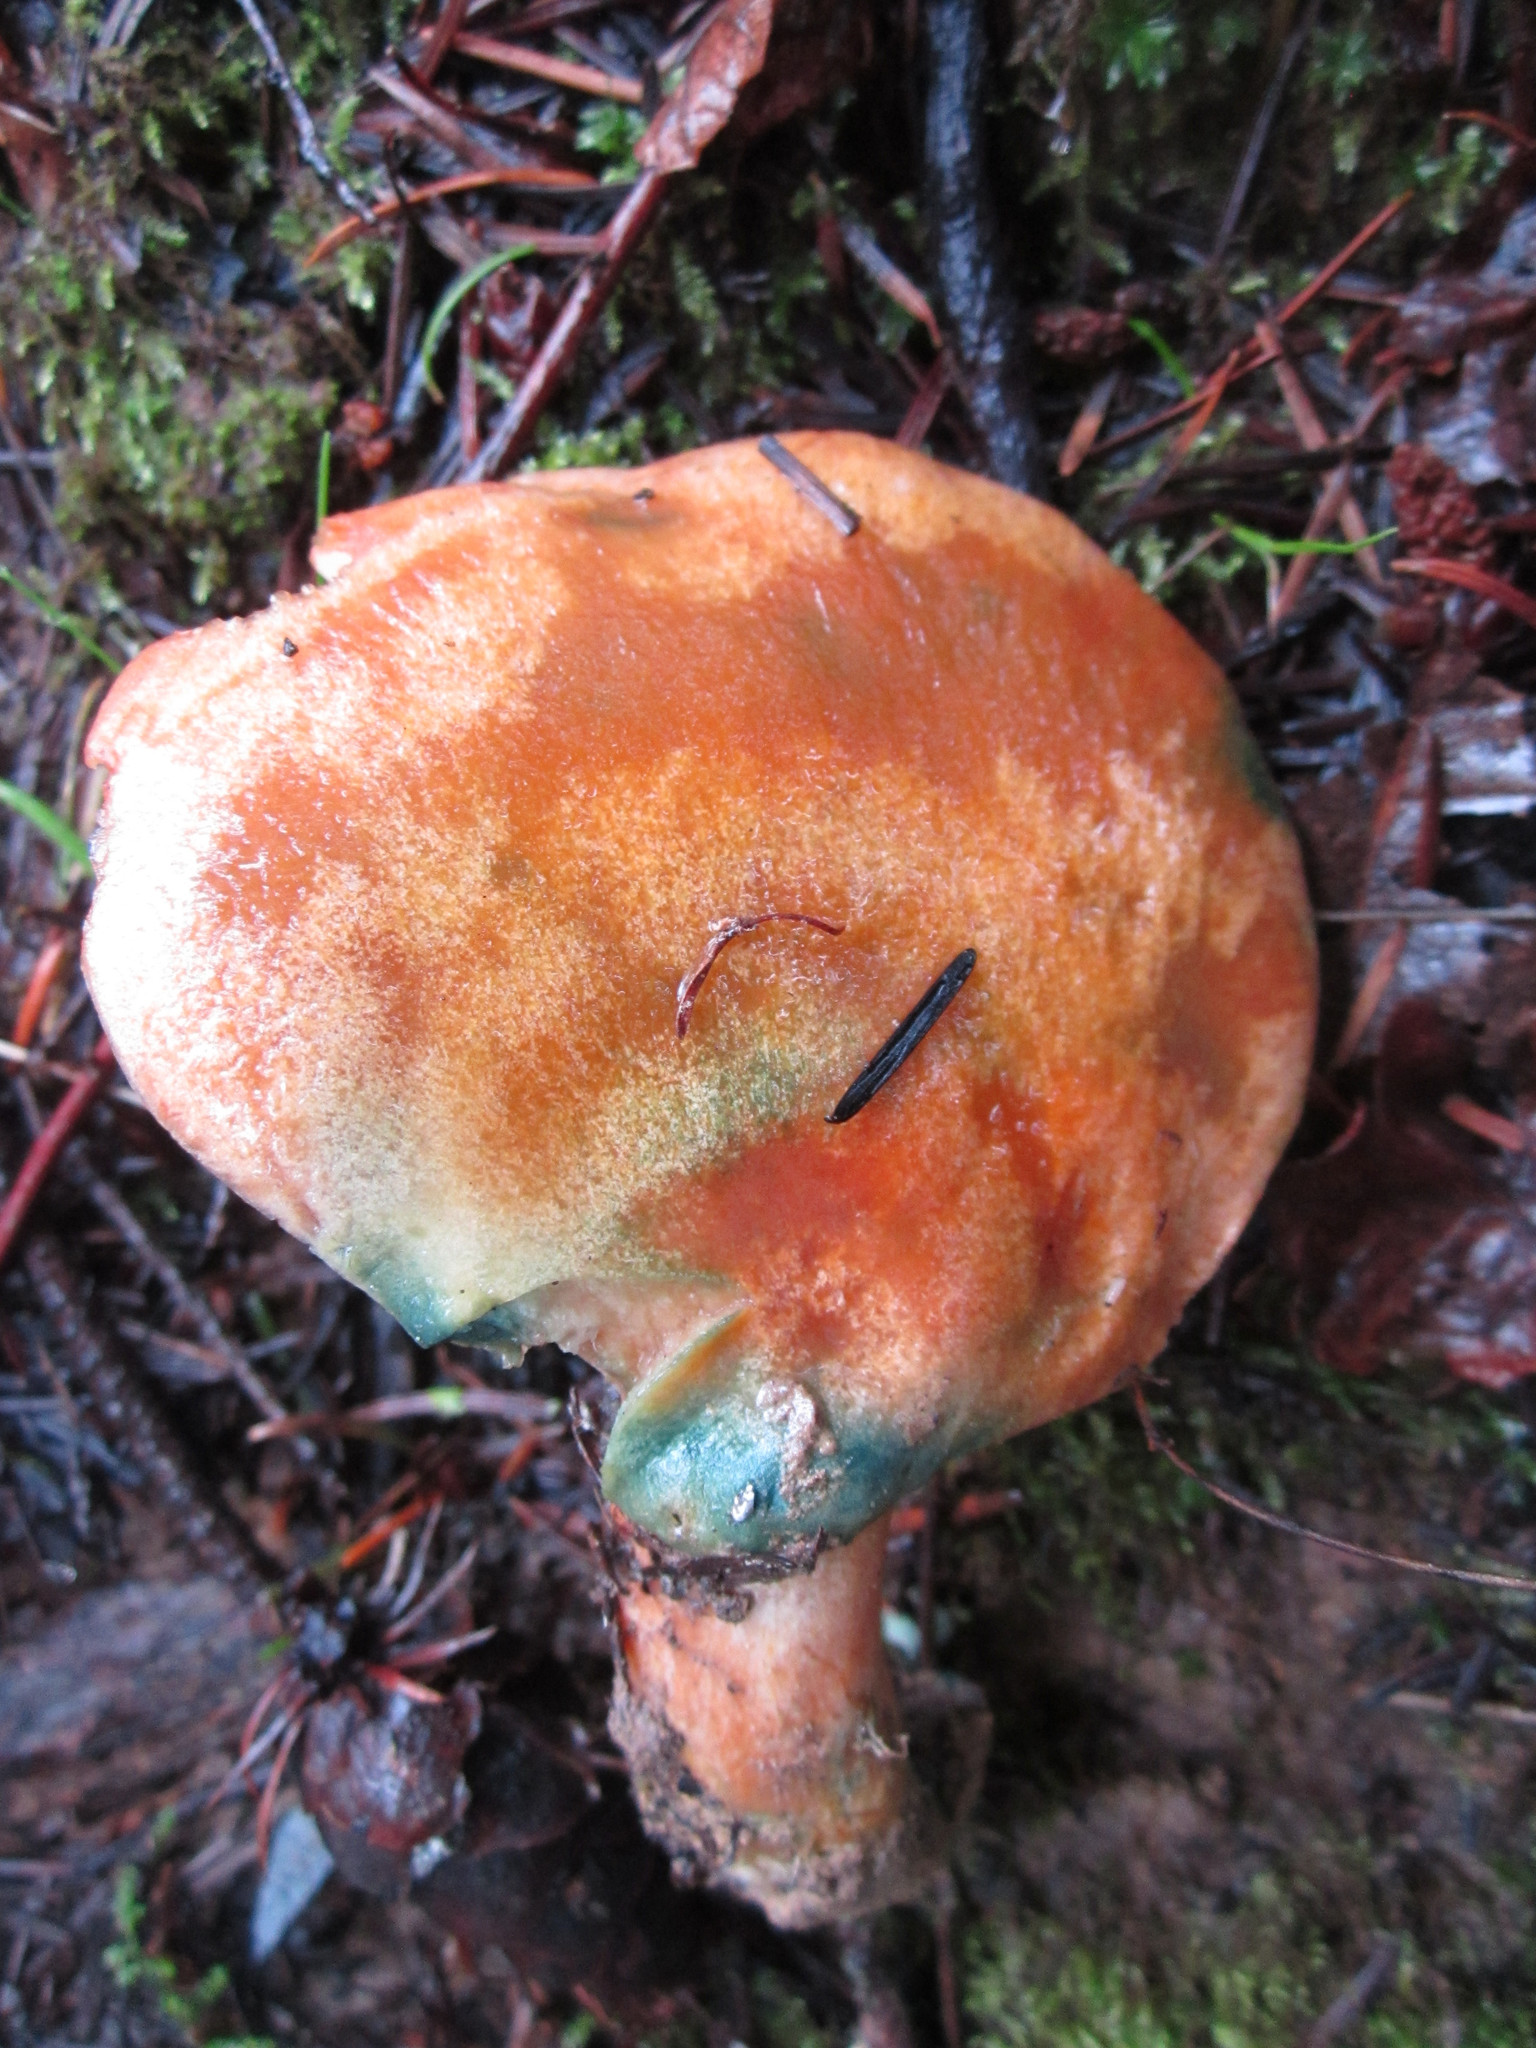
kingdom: Fungi
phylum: Basidiomycota
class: Agaricomycetes
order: Russulales
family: Russulaceae
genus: Lactarius
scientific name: Lactarius deliciosus
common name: Saffron milk-cap
